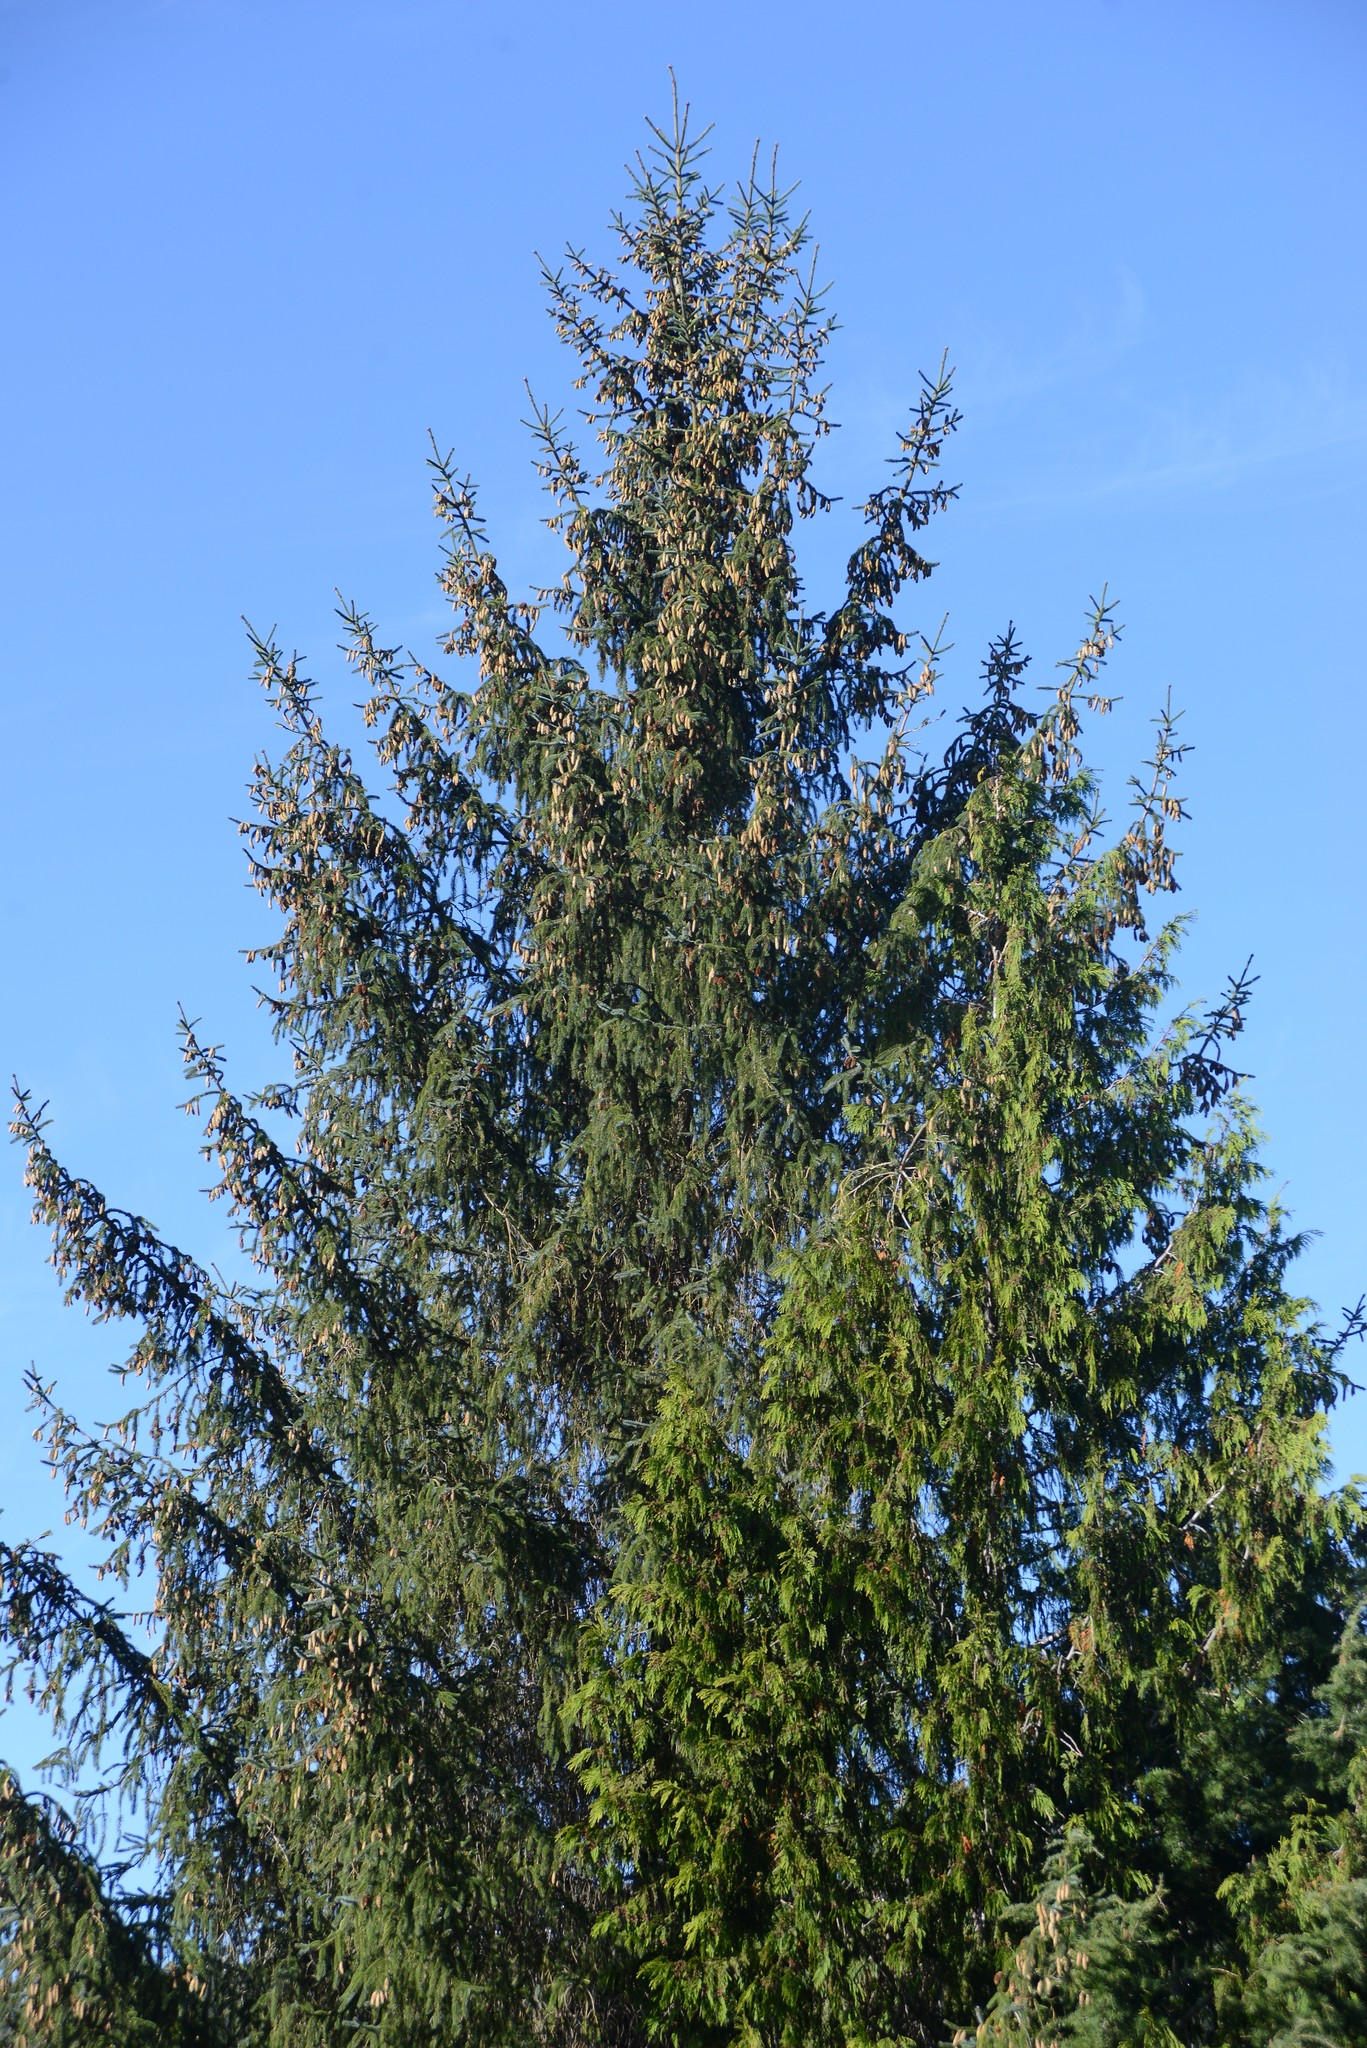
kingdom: Plantae
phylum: Tracheophyta
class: Pinopsida
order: Pinales
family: Pinaceae
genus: Pseudotsuga
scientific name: Pseudotsuga menziesii
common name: Douglas fir
